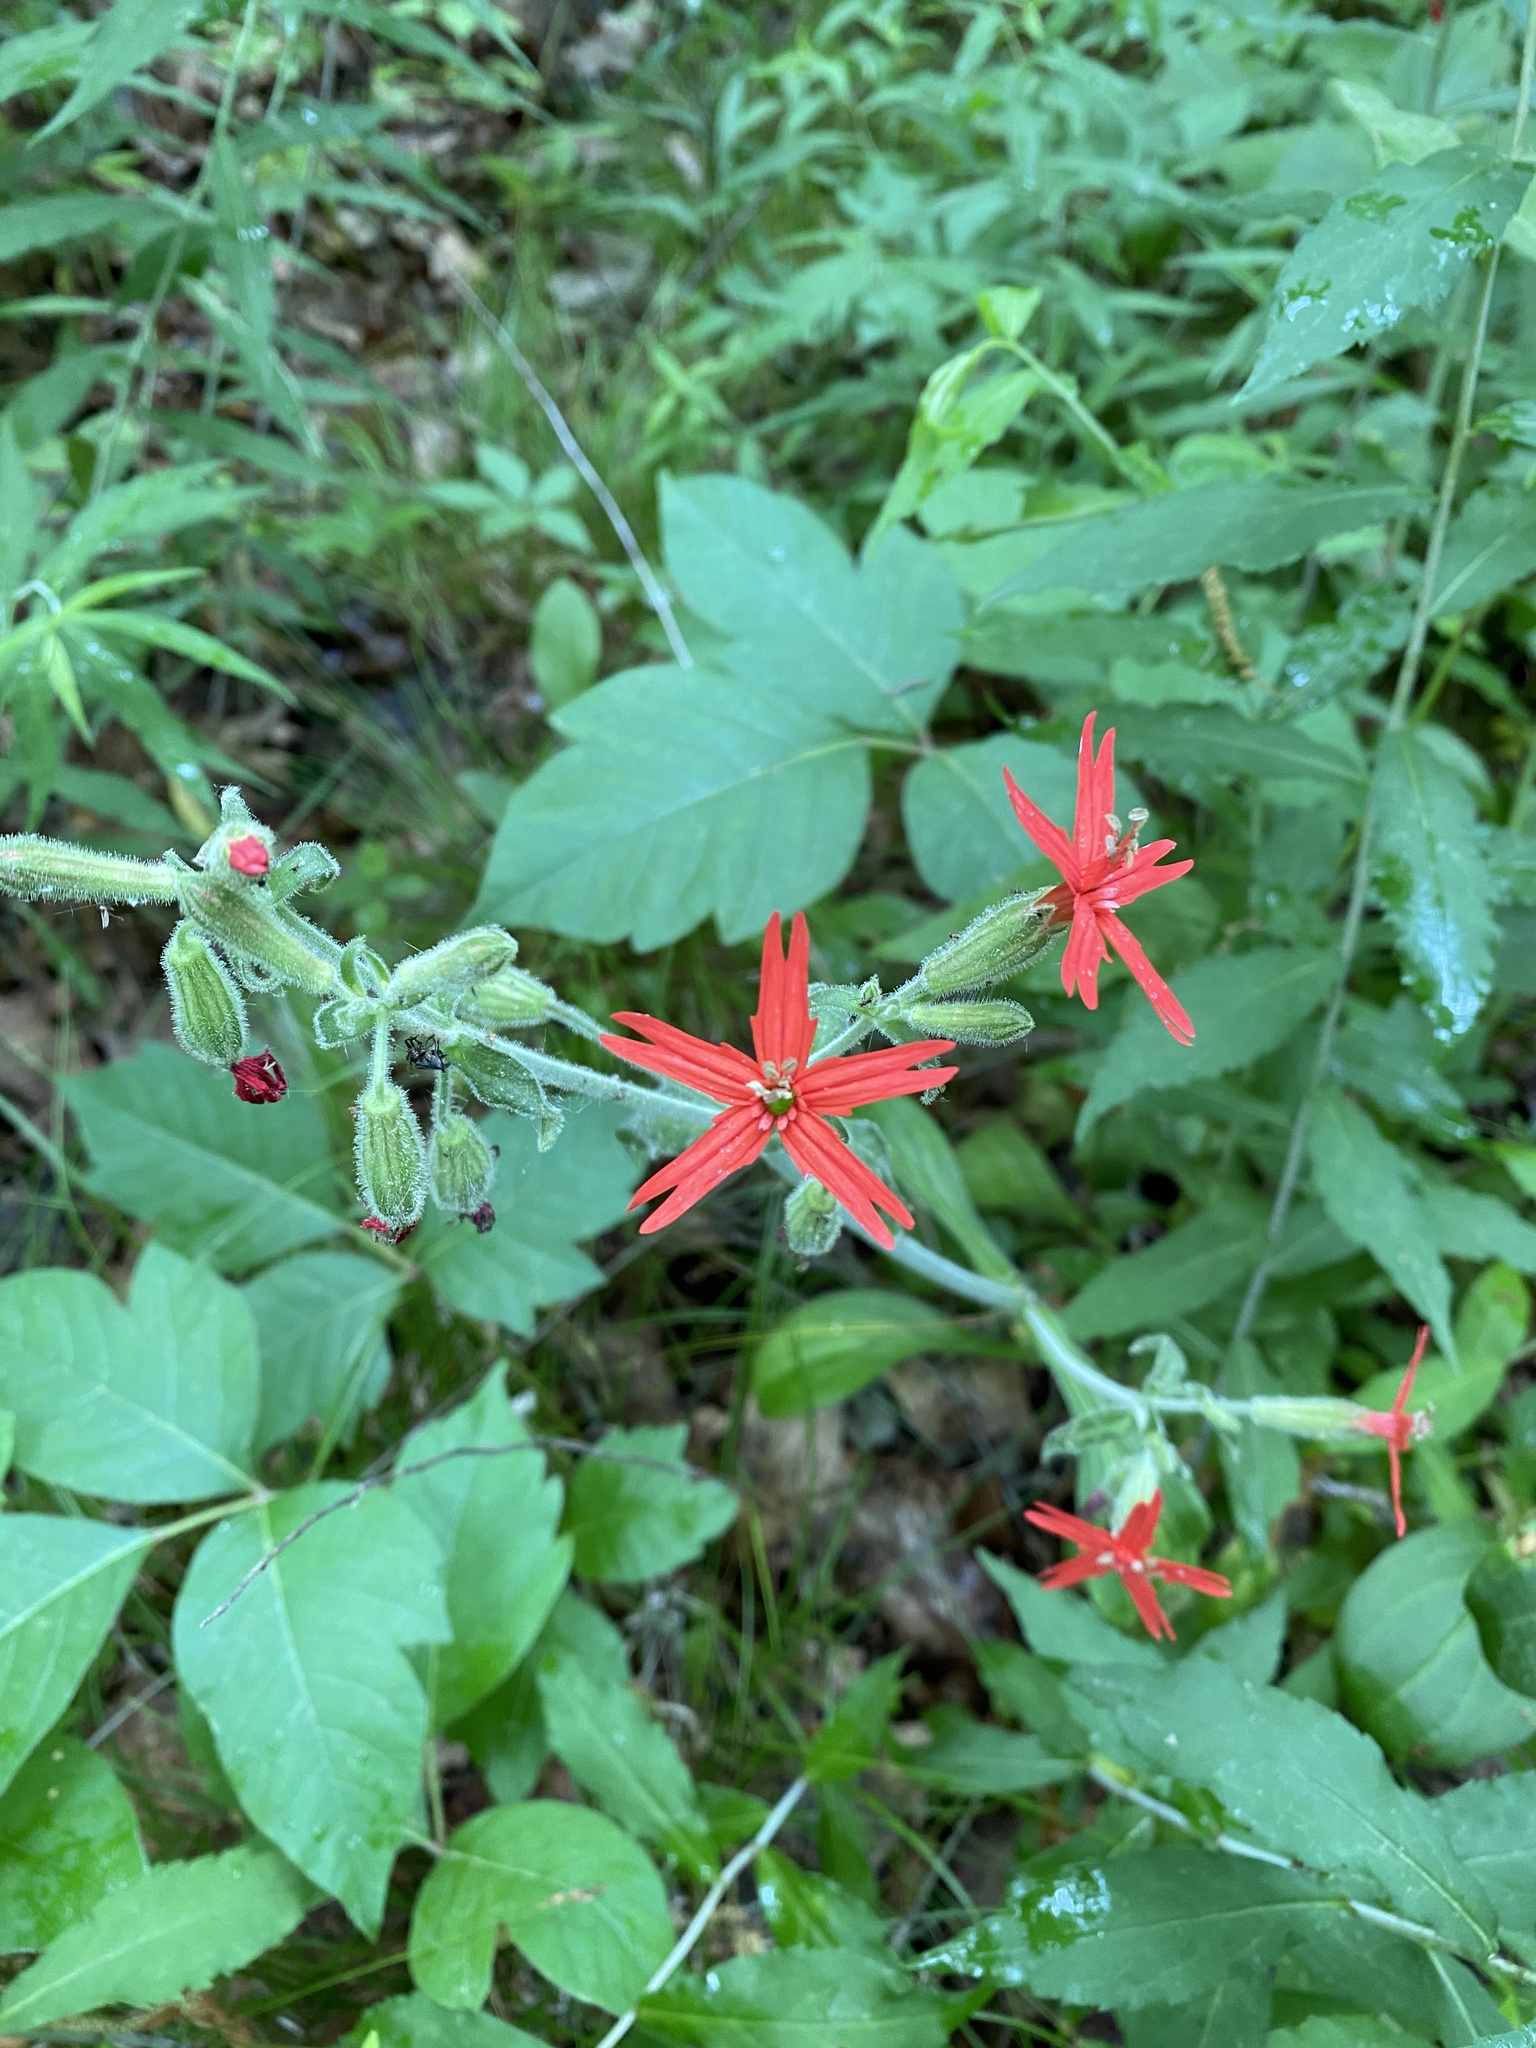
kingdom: Plantae
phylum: Tracheophyta
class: Magnoliopsida
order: Caryophyllales
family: Caryophyllaceae
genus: Silene
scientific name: Silene virginica
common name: Fire-pink
